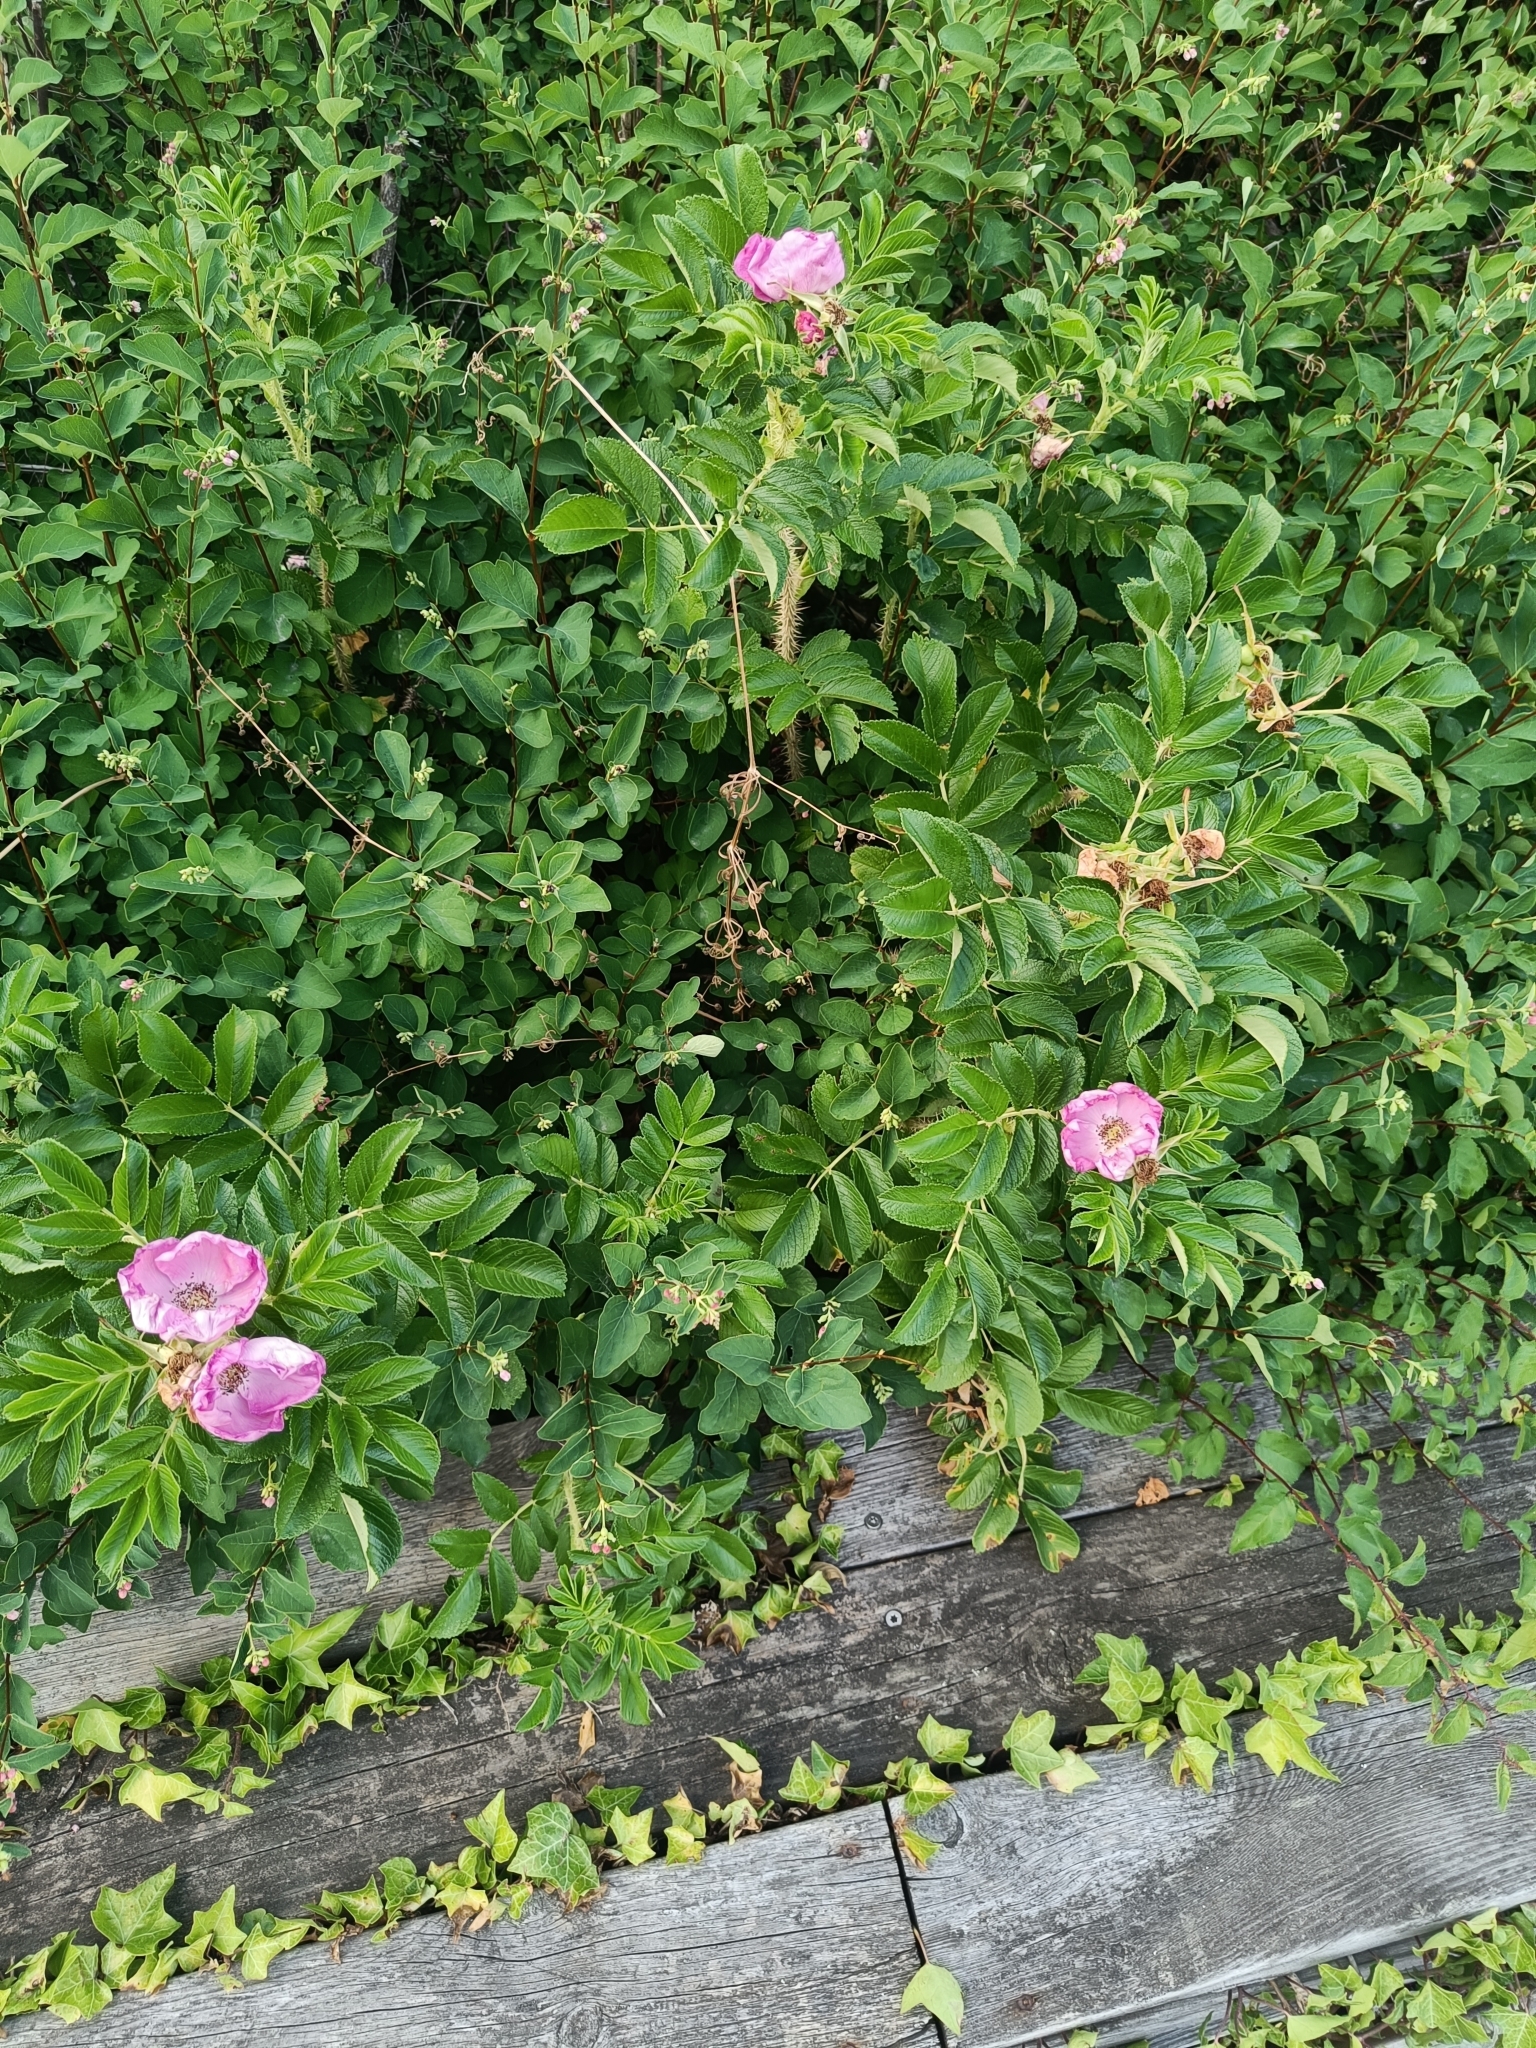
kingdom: Plantae
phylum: Tracheophyta
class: Magnoliopsida
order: Rosales
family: Rosaceae
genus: Rosa
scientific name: Rosa rugosa
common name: Japanese rose
